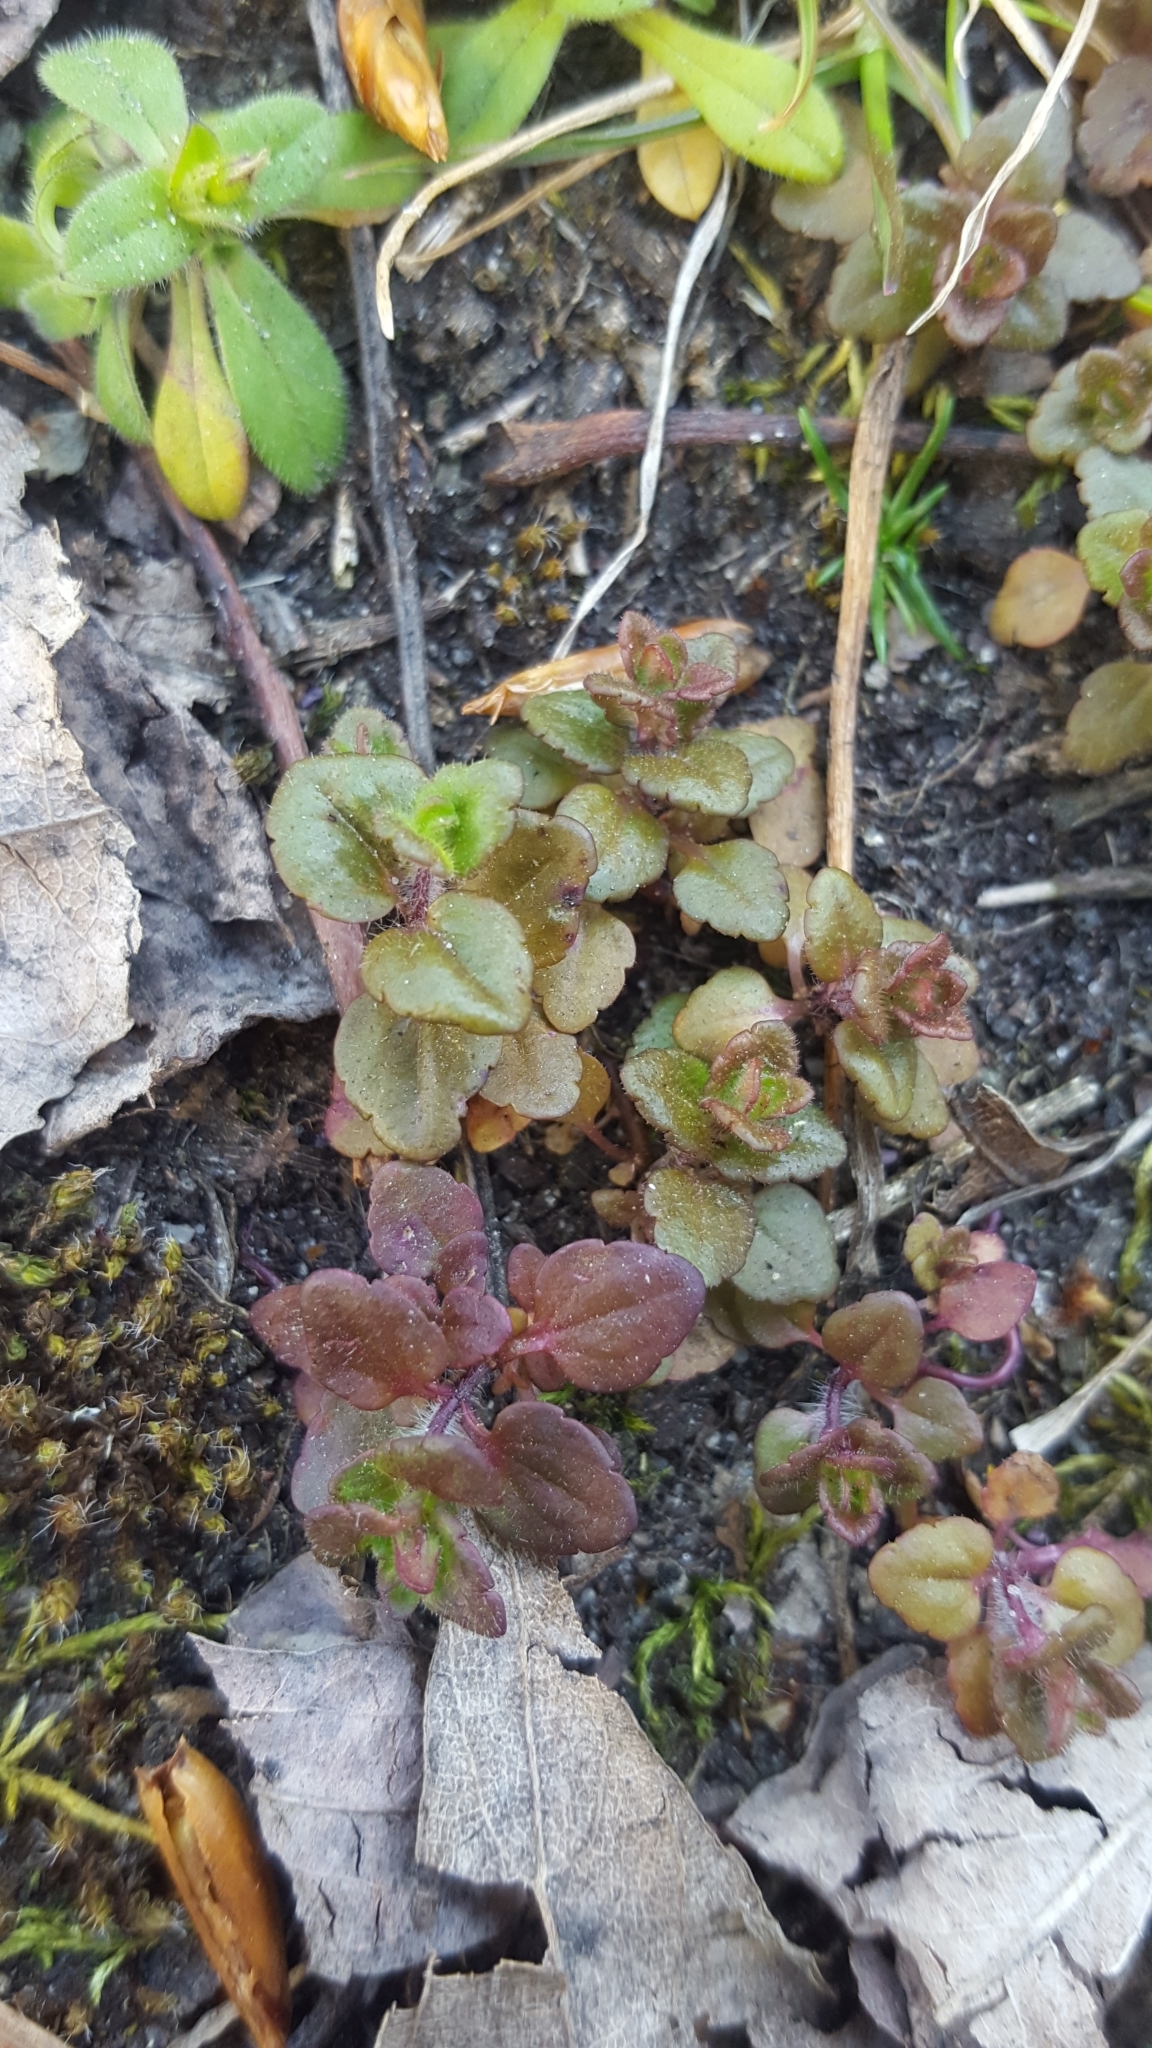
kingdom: Plantae
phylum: Tracheophyta
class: Magnoliopsida
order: Lamiales
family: Plantaginaceae
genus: Veronica
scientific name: Veronica arvensis
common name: Corn speedwell
